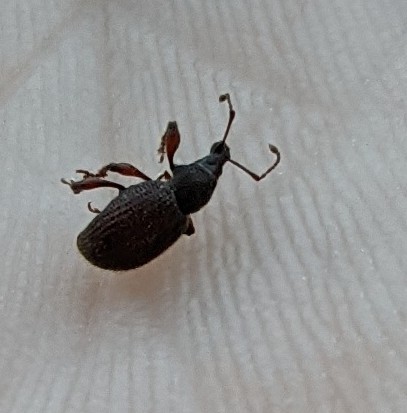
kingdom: Animalia
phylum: Arthropoda
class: Insecta
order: Coleoptera
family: Curculionidae
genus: Otiorhynchus
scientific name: Otiorhynchus ligneus
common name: Weevil
